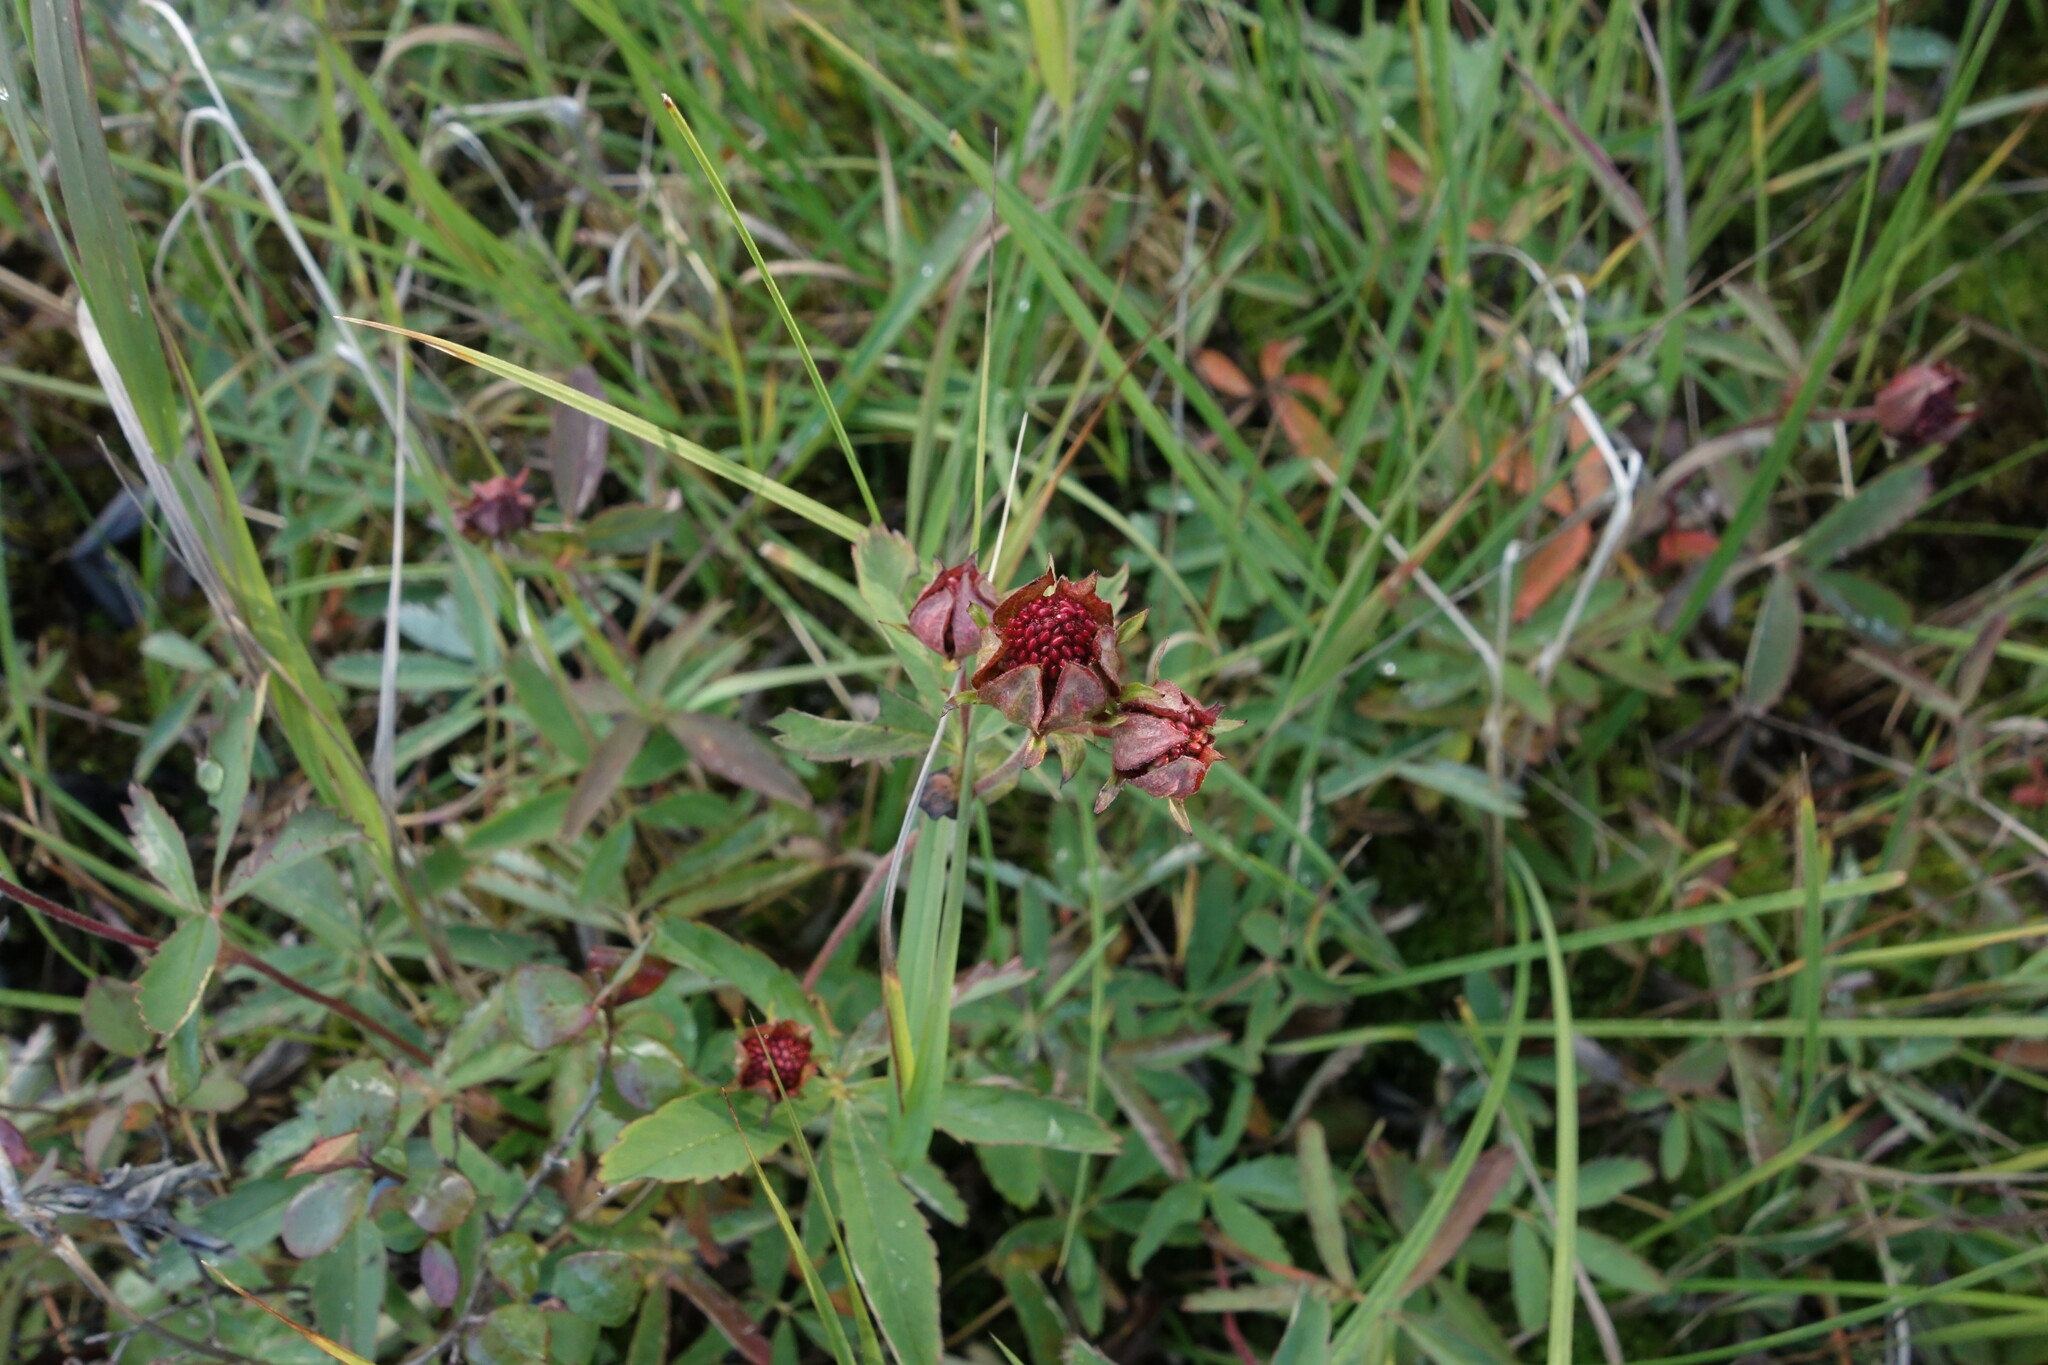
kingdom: Plantae
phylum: Tracheophyta
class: Magnoliopsida
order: Rosales
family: Rosaceae
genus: Comarum
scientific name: Comarum palustre
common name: Marsh cinquefoil
